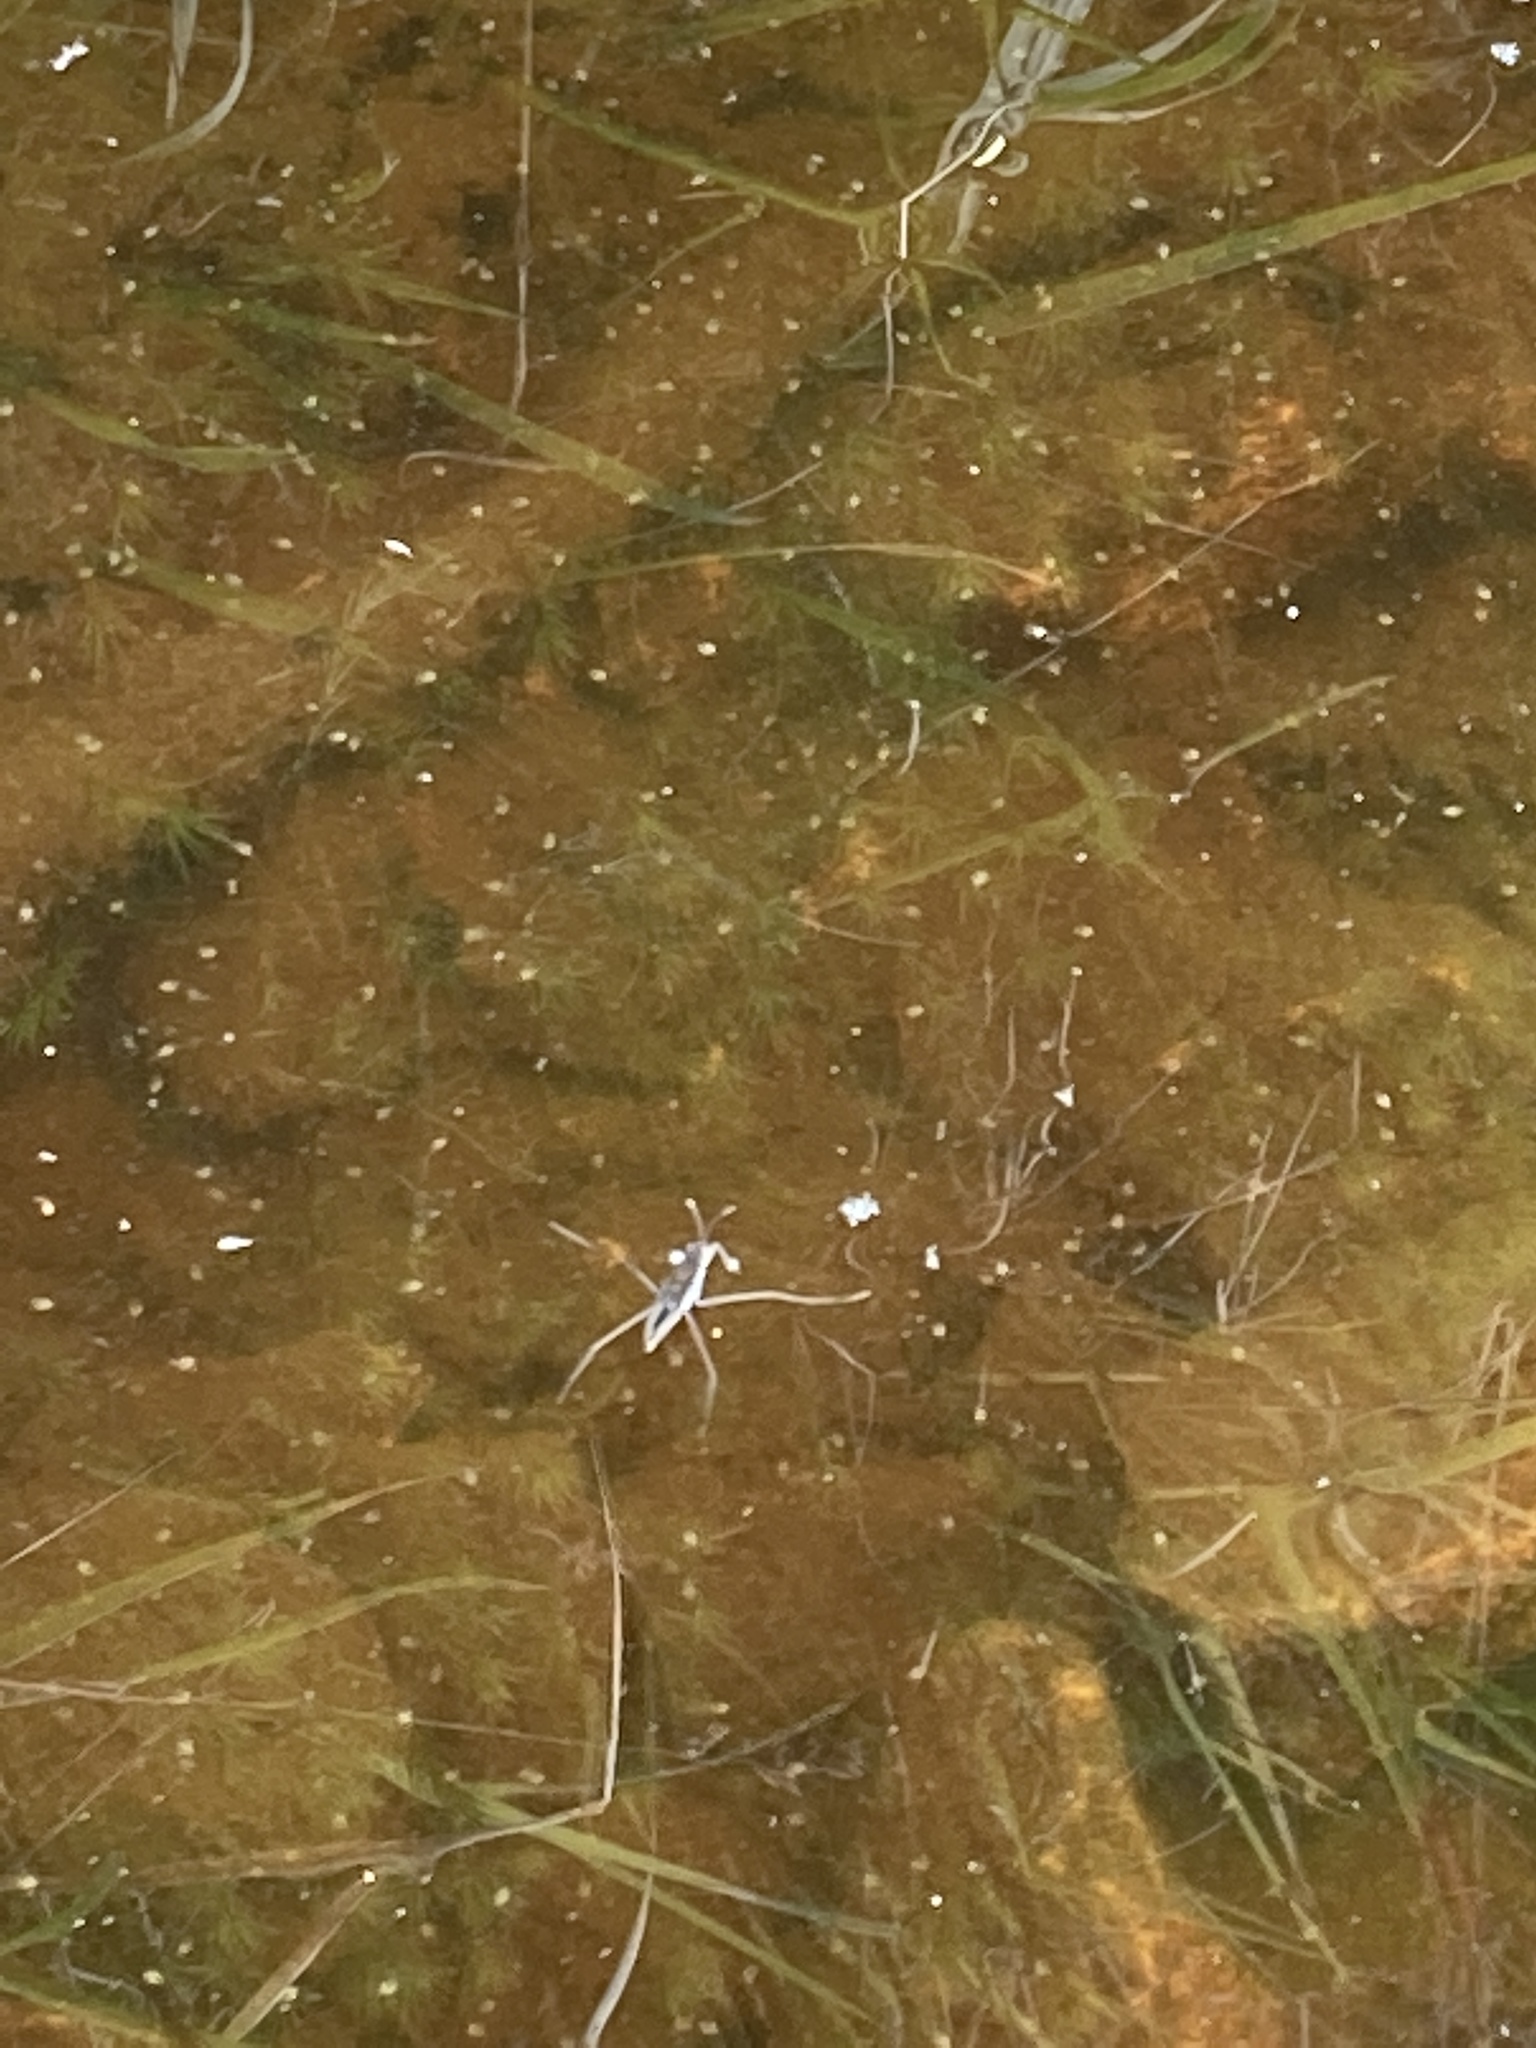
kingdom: Animalia
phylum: Arthropoda
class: Insecta
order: Hemiptera
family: Gerridae
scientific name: Gerridae
